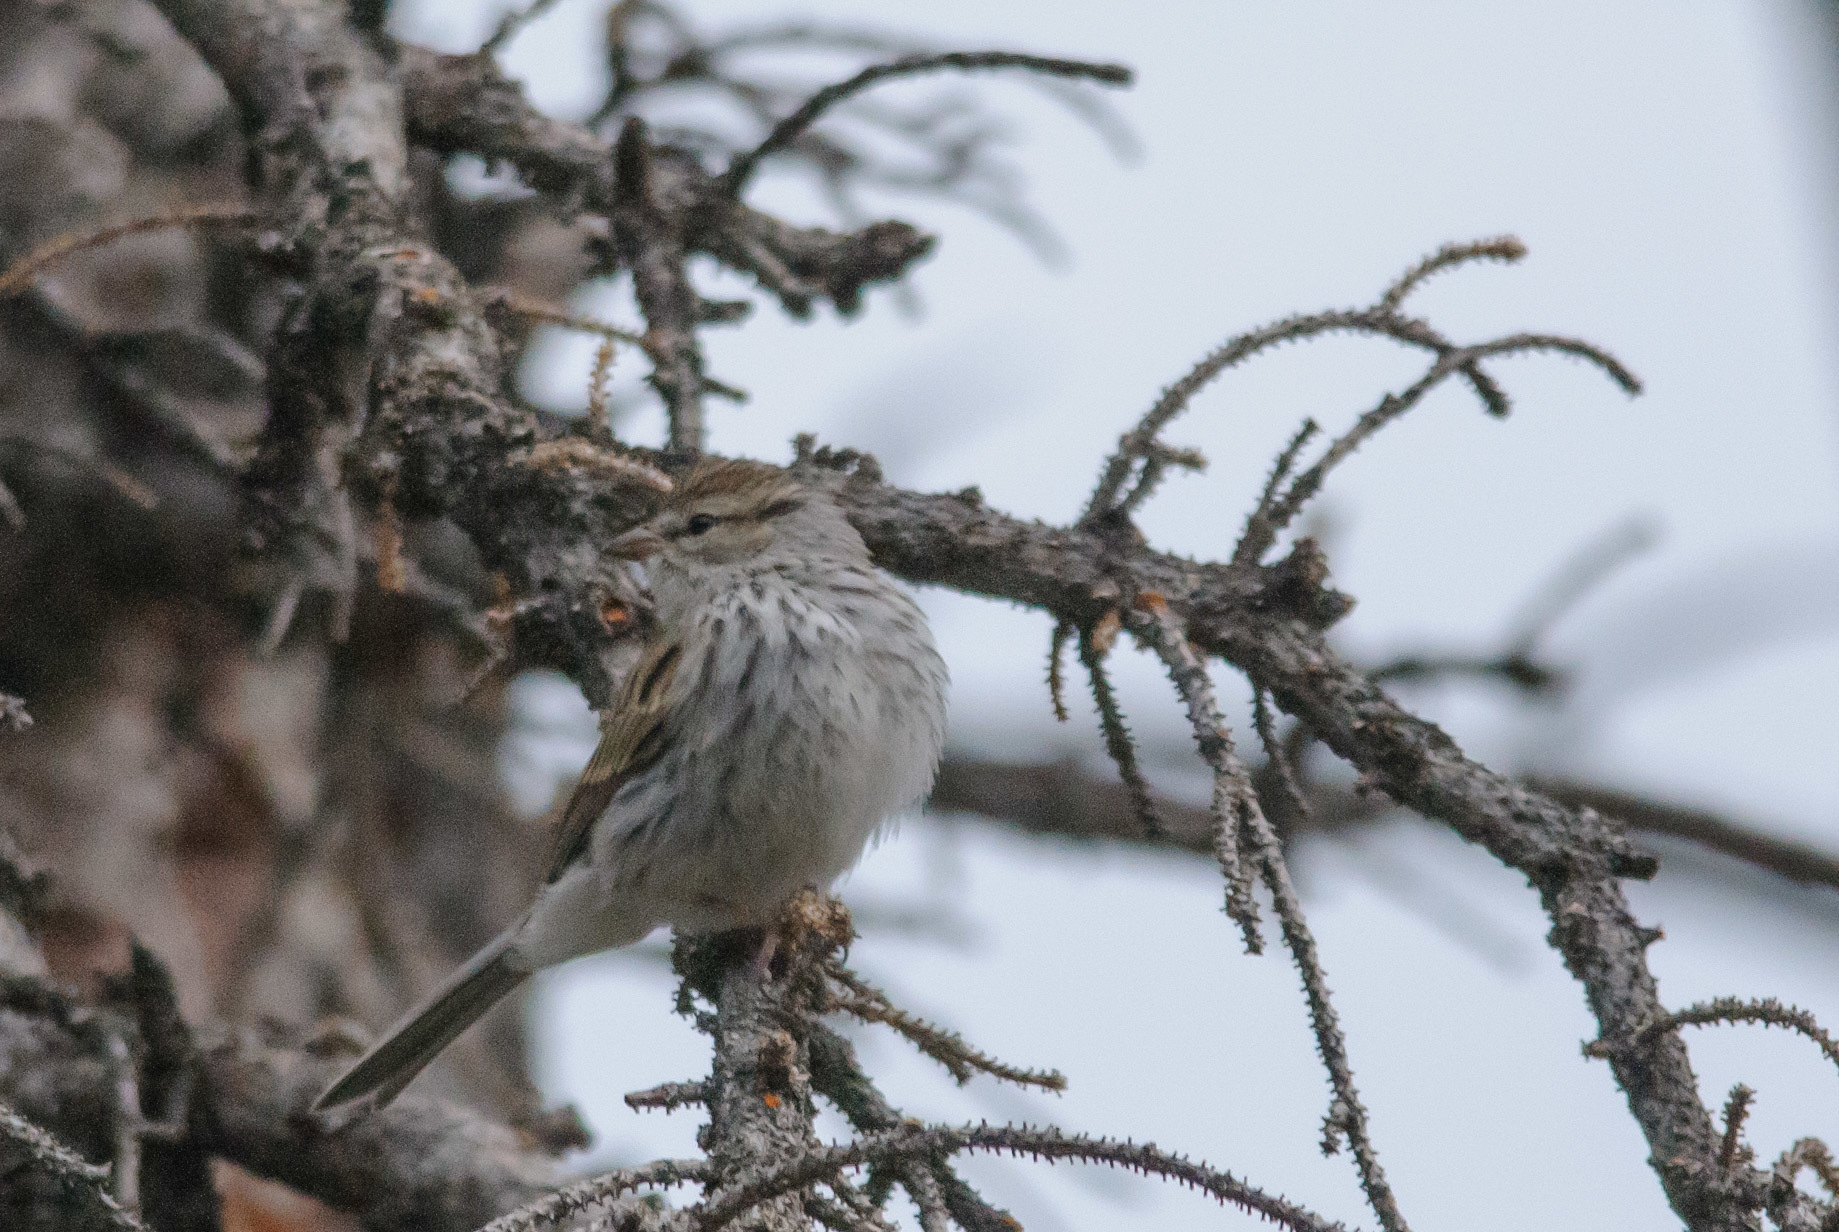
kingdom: Animalia
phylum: Chordata
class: Aves
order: Passeriformes
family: Passerellidae
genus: Spizella
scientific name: Spizella passerina
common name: Chipping sparrow
